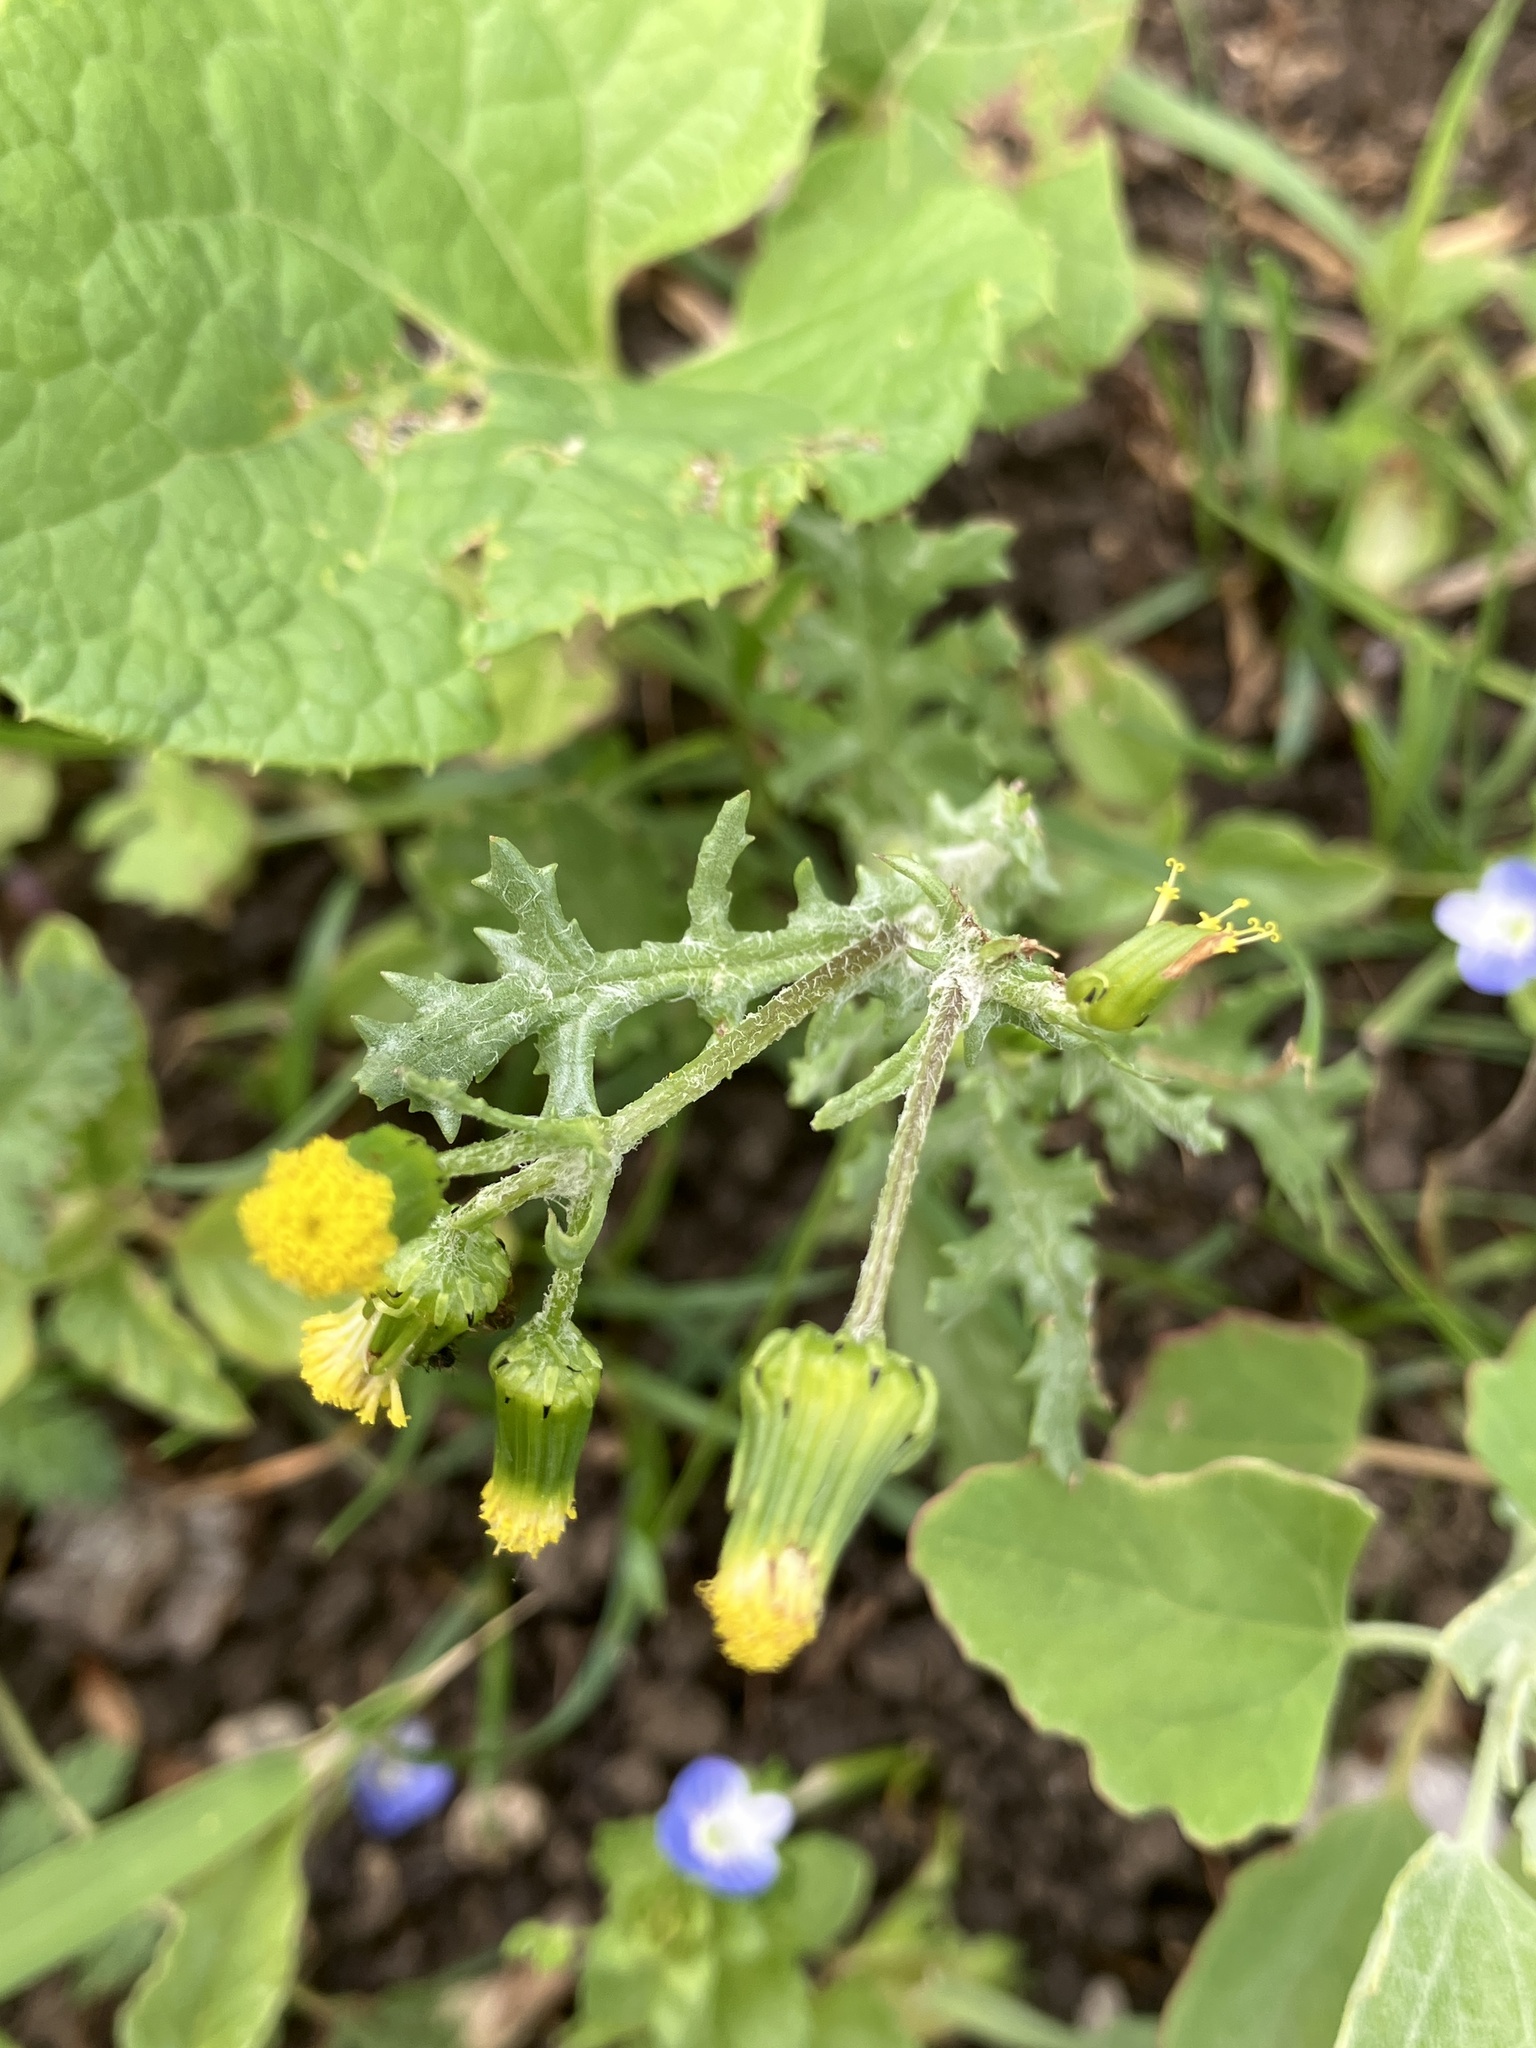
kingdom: Plantae
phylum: Tracheophyta
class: Magnoliopsida
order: Asterales
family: Asteraceae
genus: Senecio
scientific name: Senecio vulgaris
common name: Old-man-in-the-spring
